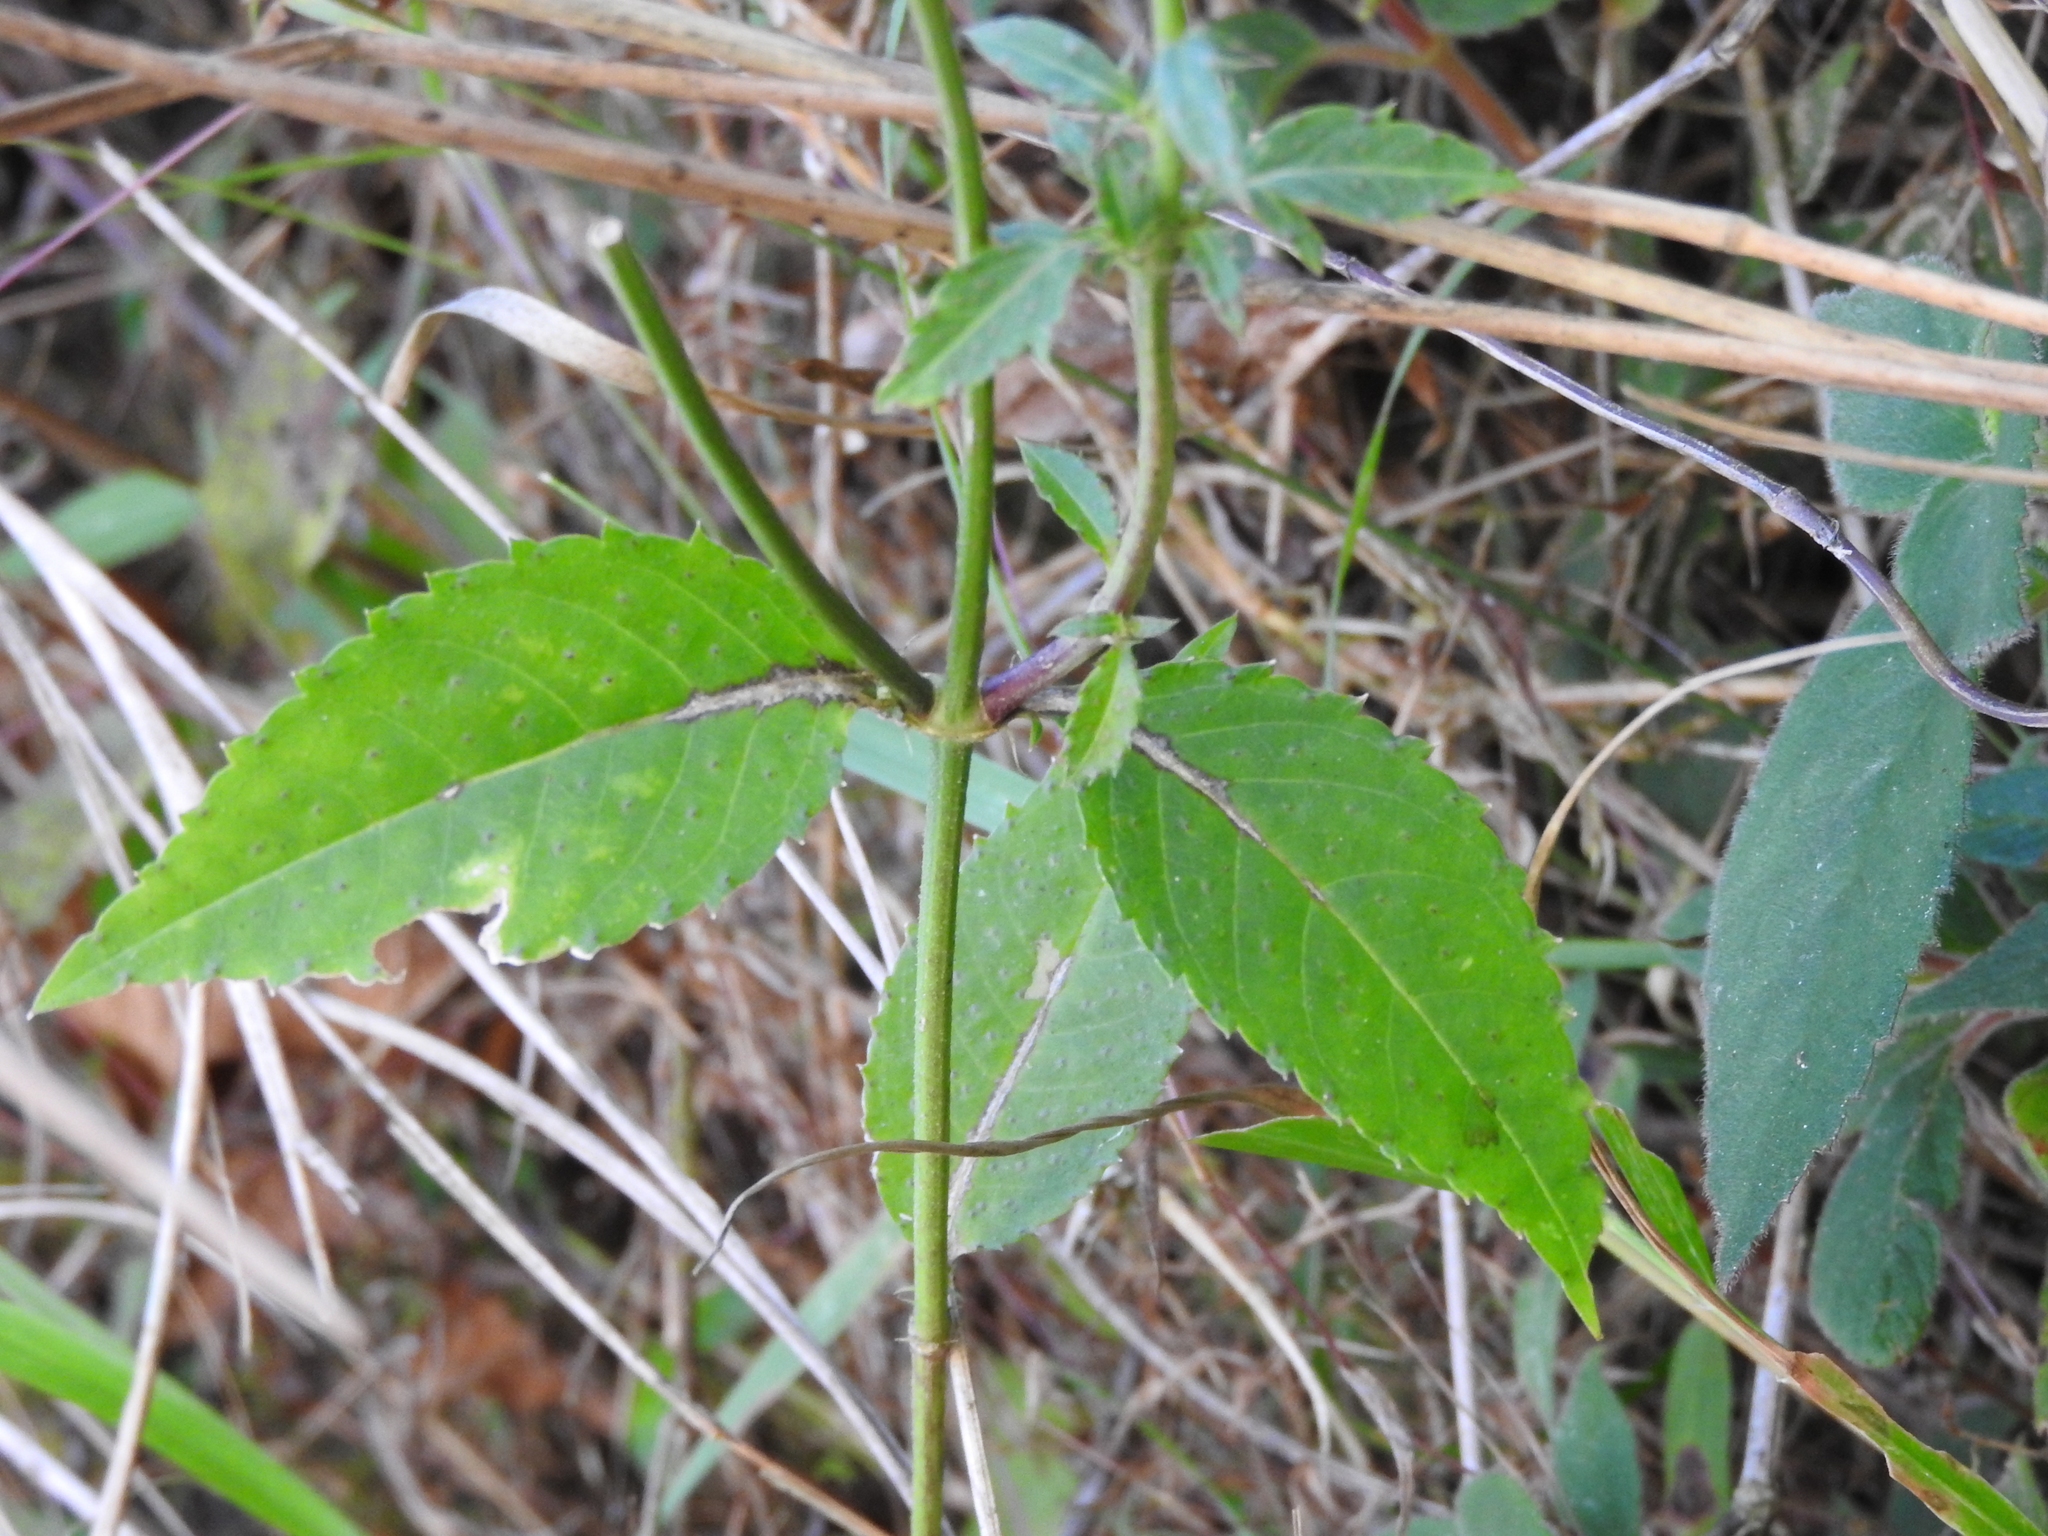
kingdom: Plantae
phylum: Tracheophyta
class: Magnoliopsida
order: Asterales
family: Asteraceae
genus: Pseudogynoxys
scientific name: Pseudogynoxys haenkei
